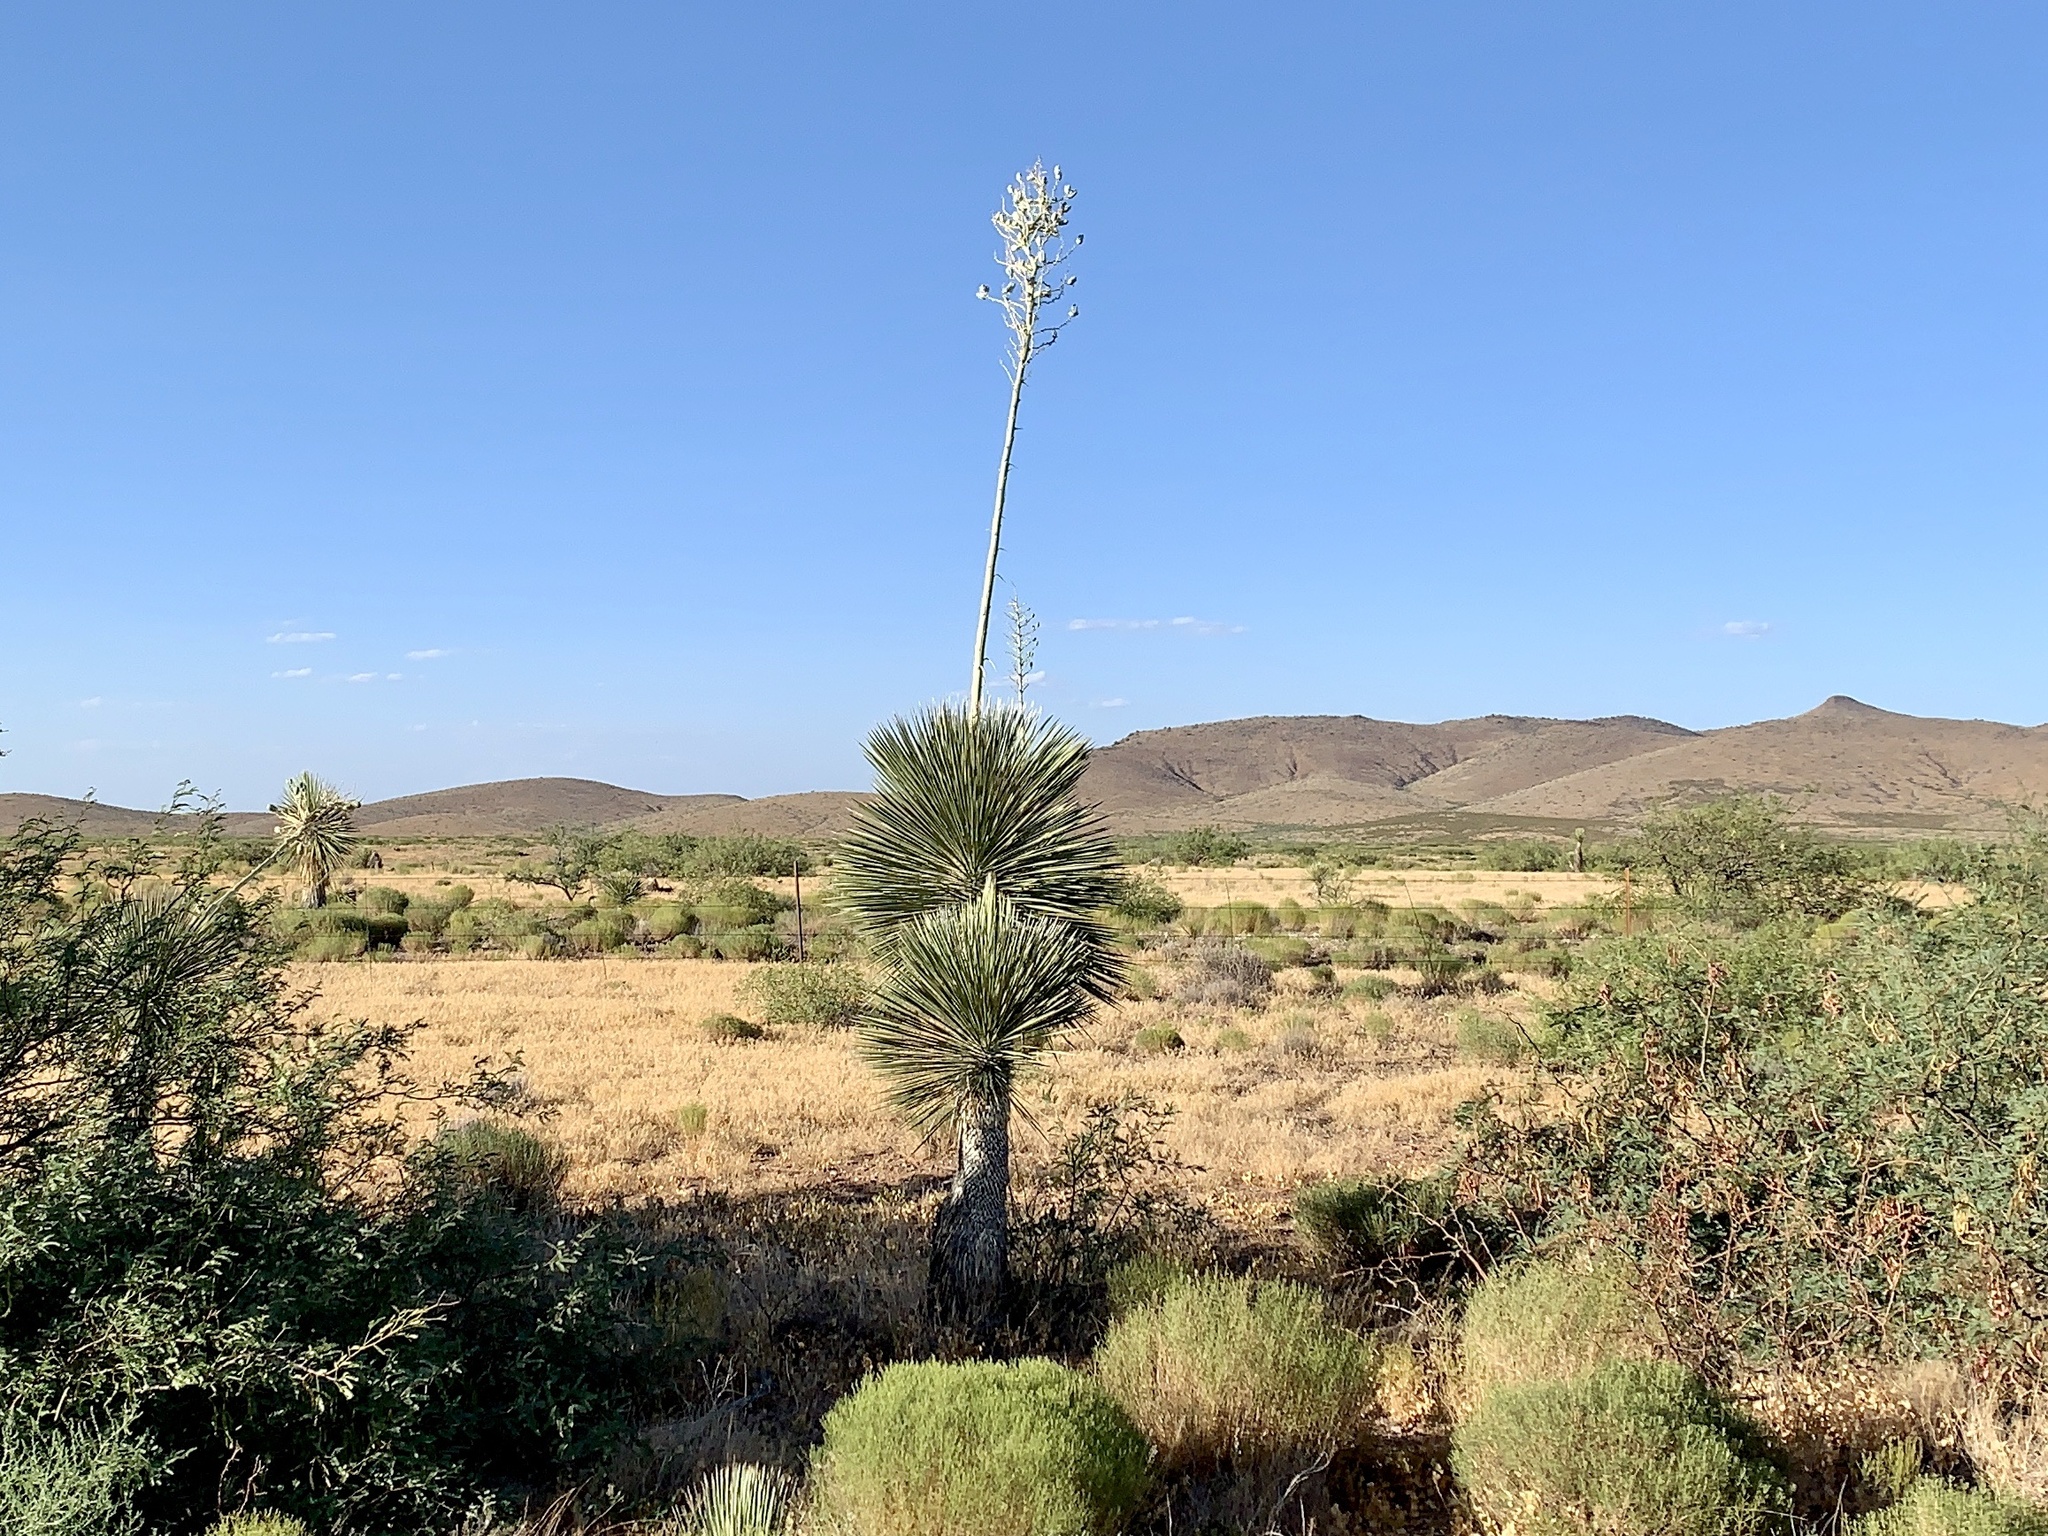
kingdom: Plantae
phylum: Tracheophyta
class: Liliopsida
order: Asparagales
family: Asparagaceae
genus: Yucca
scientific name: Yucca elata
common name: Palmella
